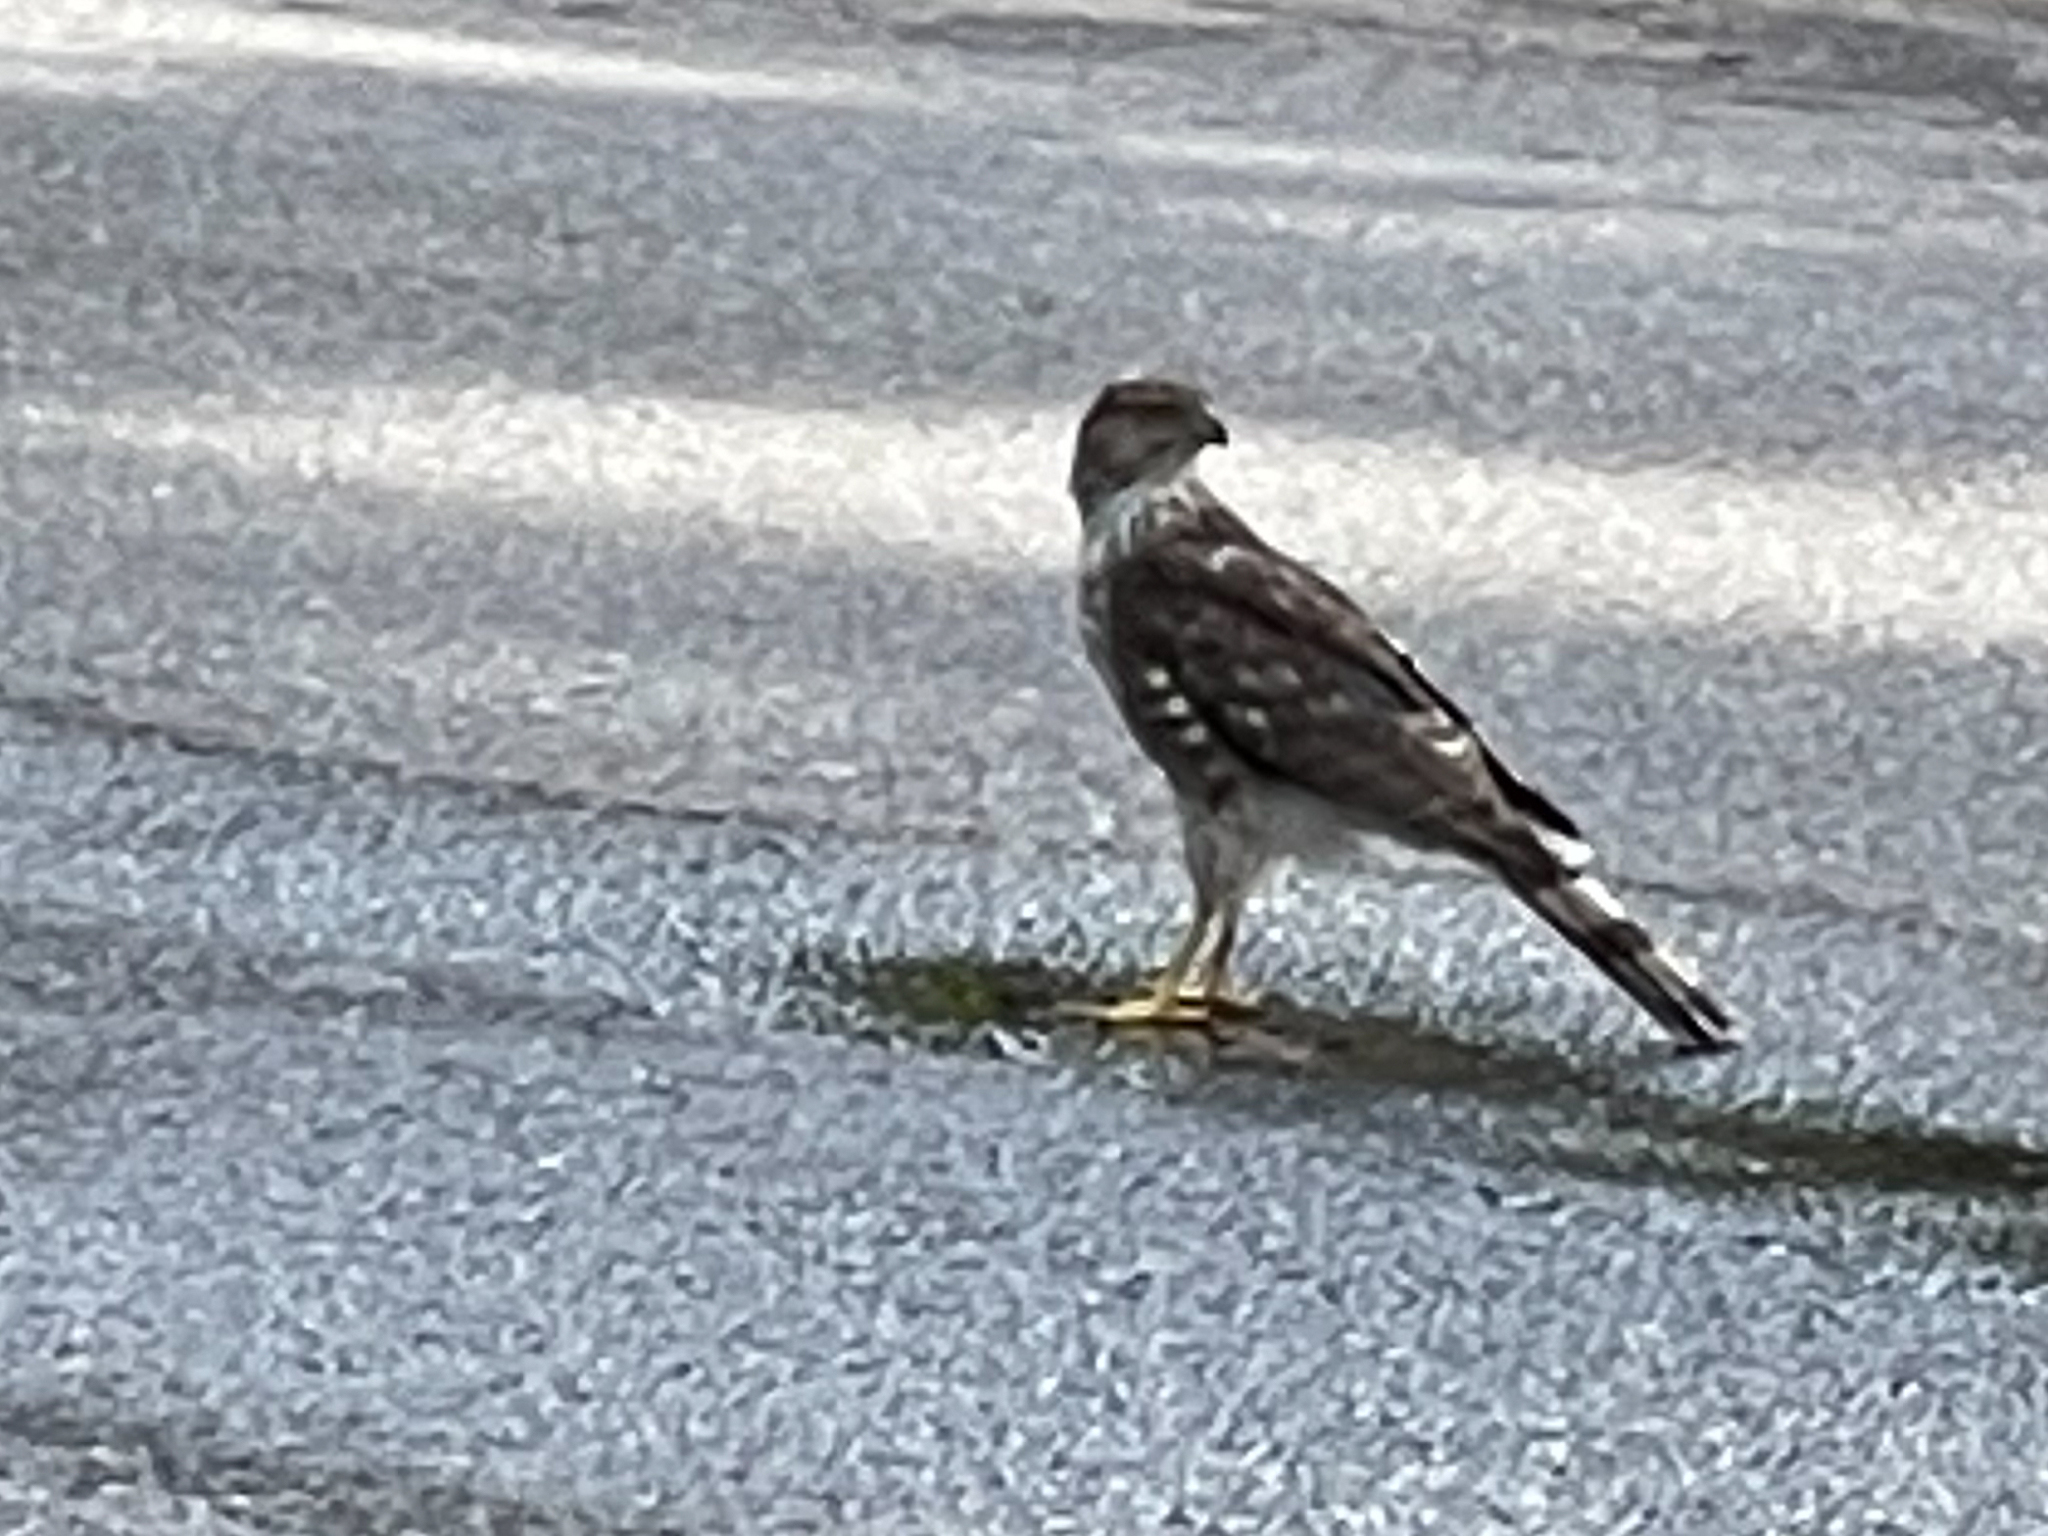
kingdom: Animalia
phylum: Chordata
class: Aves
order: Accipitriformes
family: Accipitridae
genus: Accipiter
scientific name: Accipiter cooperii
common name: Cooper's hawk
